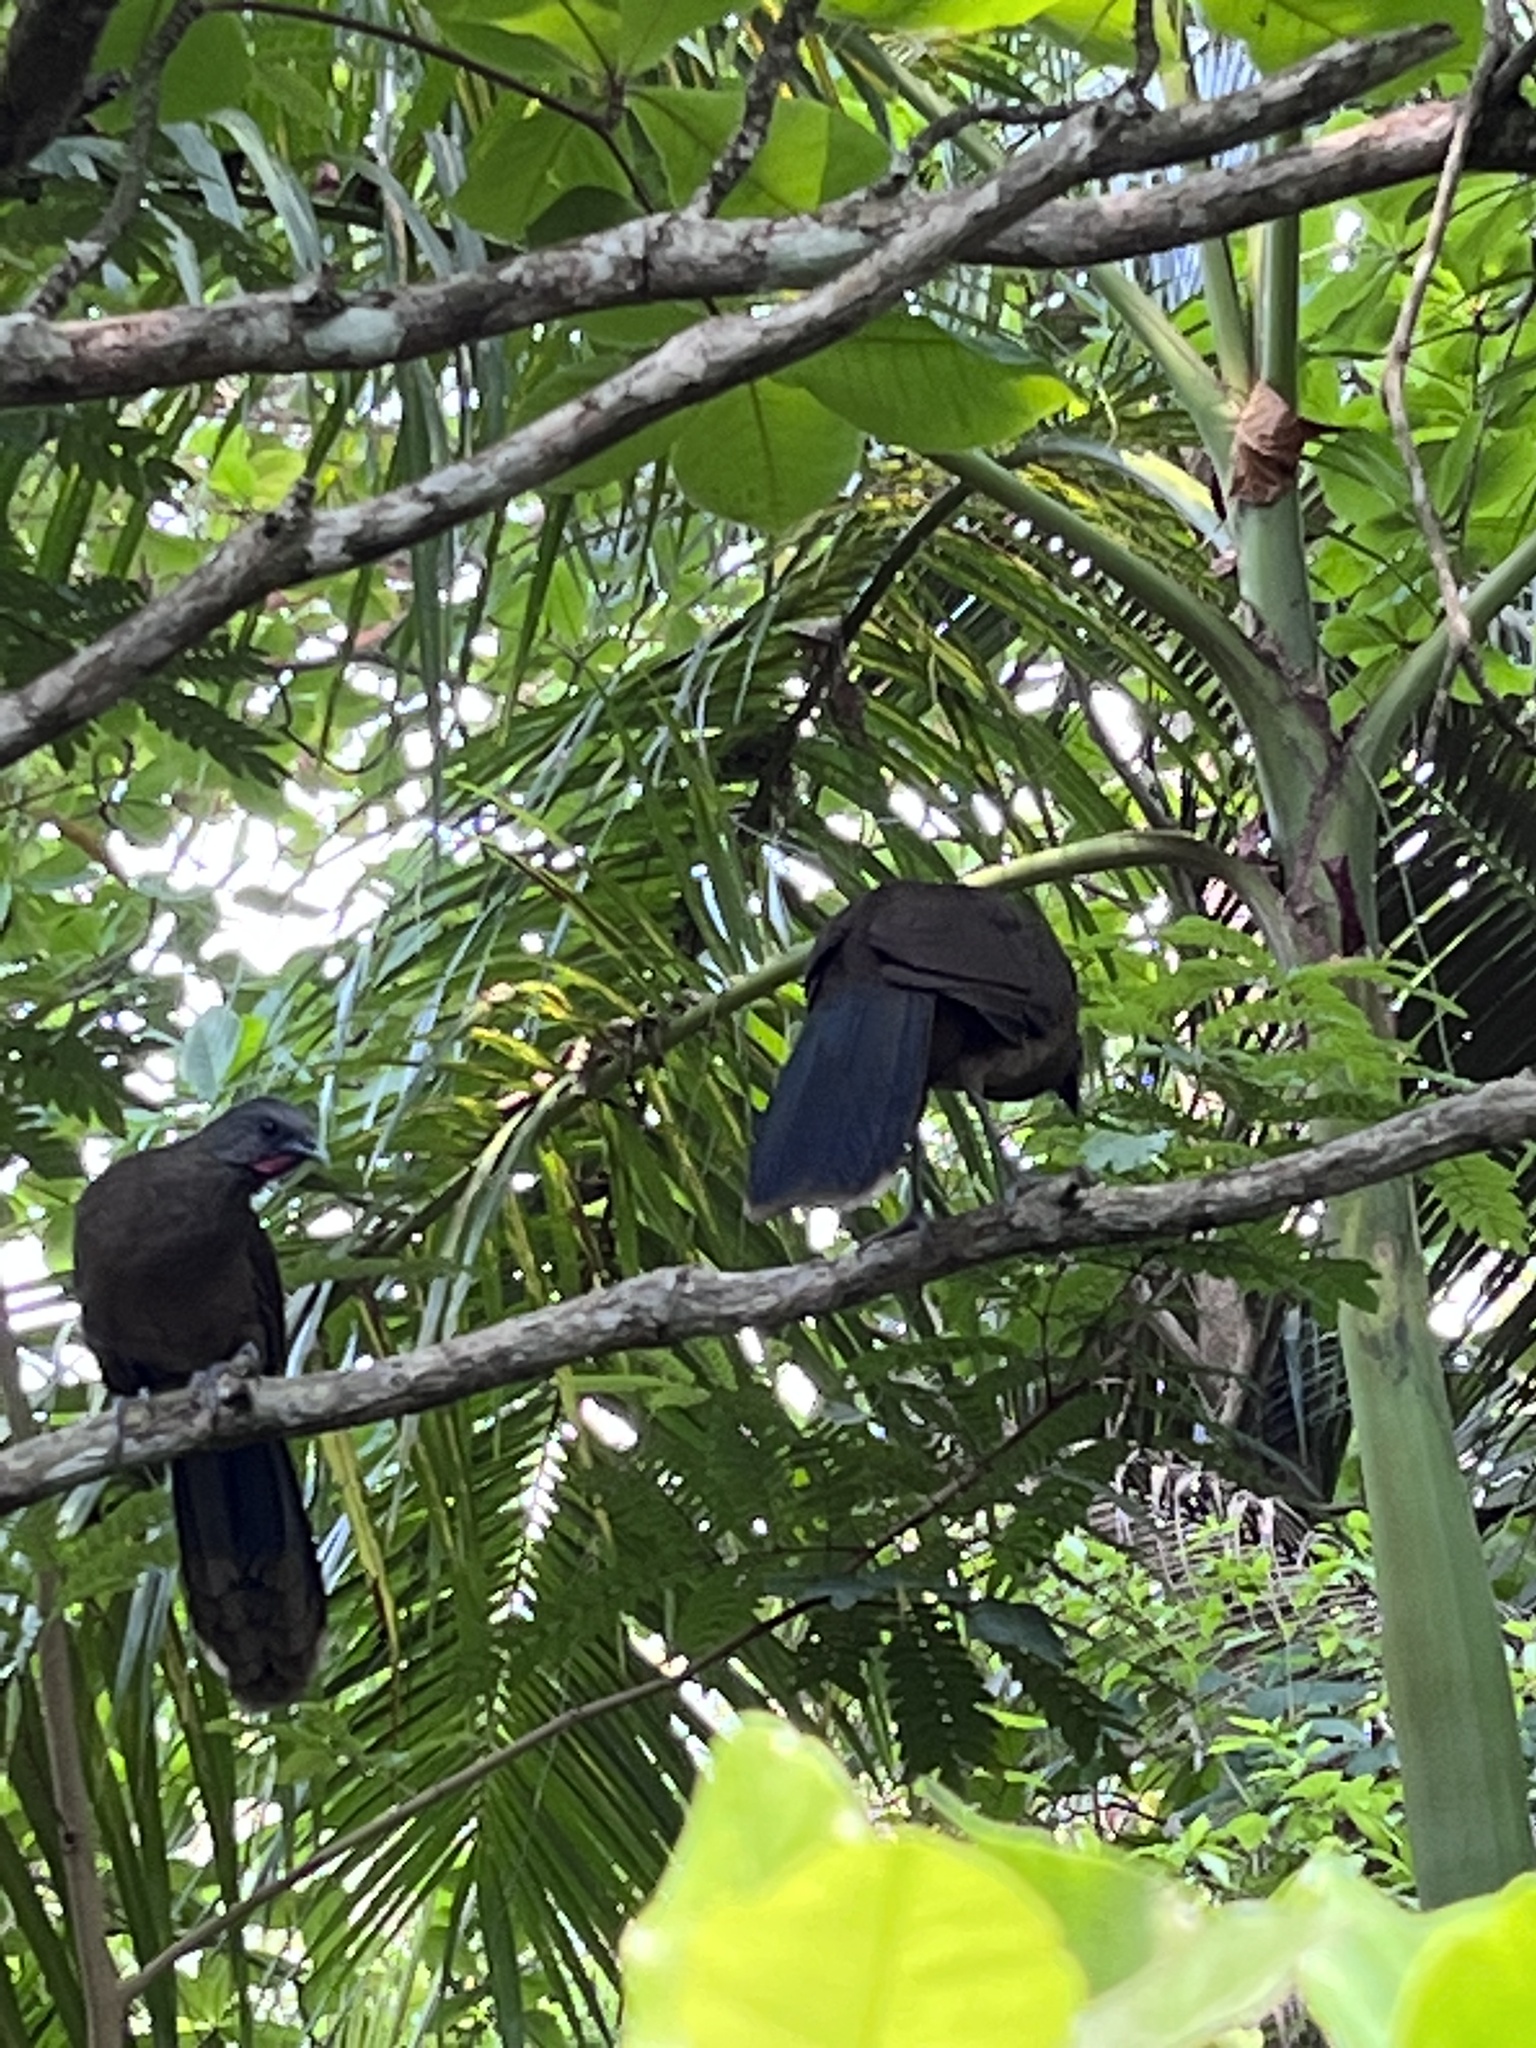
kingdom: Animalia
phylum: Chordata
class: Aves
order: Galliformes
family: Cracidae
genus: Ortalis
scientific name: Ortalis vetula
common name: Plain chachalaca
